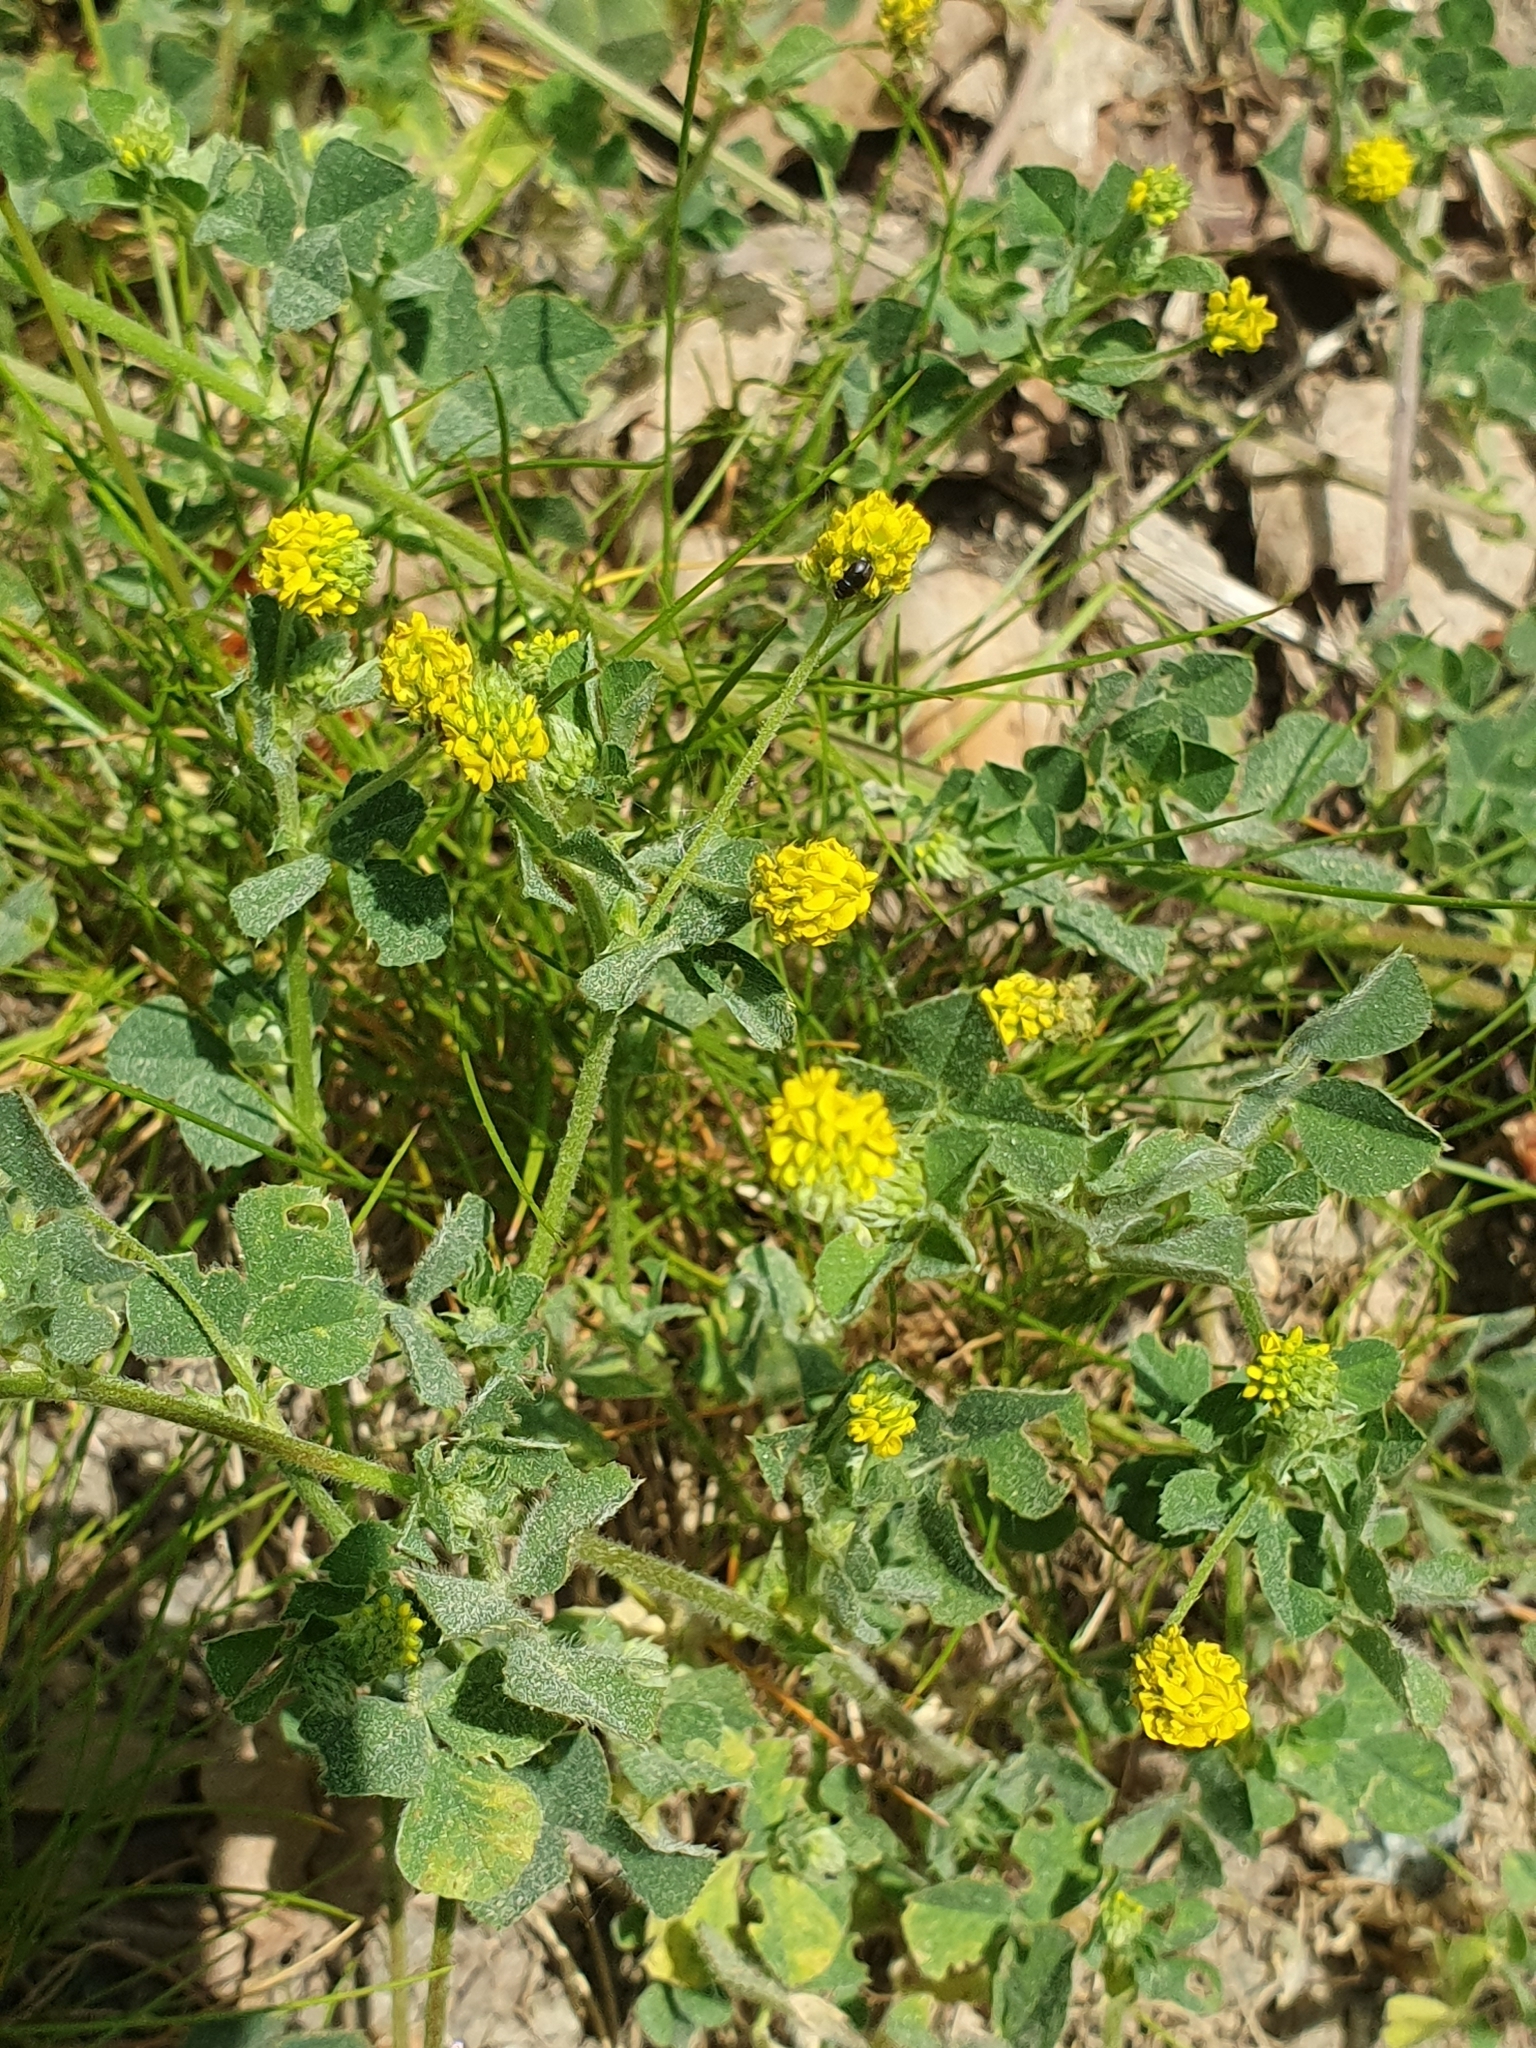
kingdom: Plantae
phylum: Tracheophyta
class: Magnoliopsida
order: Fabales
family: Fabaceae
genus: Medicago
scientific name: Medicago lupulina
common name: Black medick
